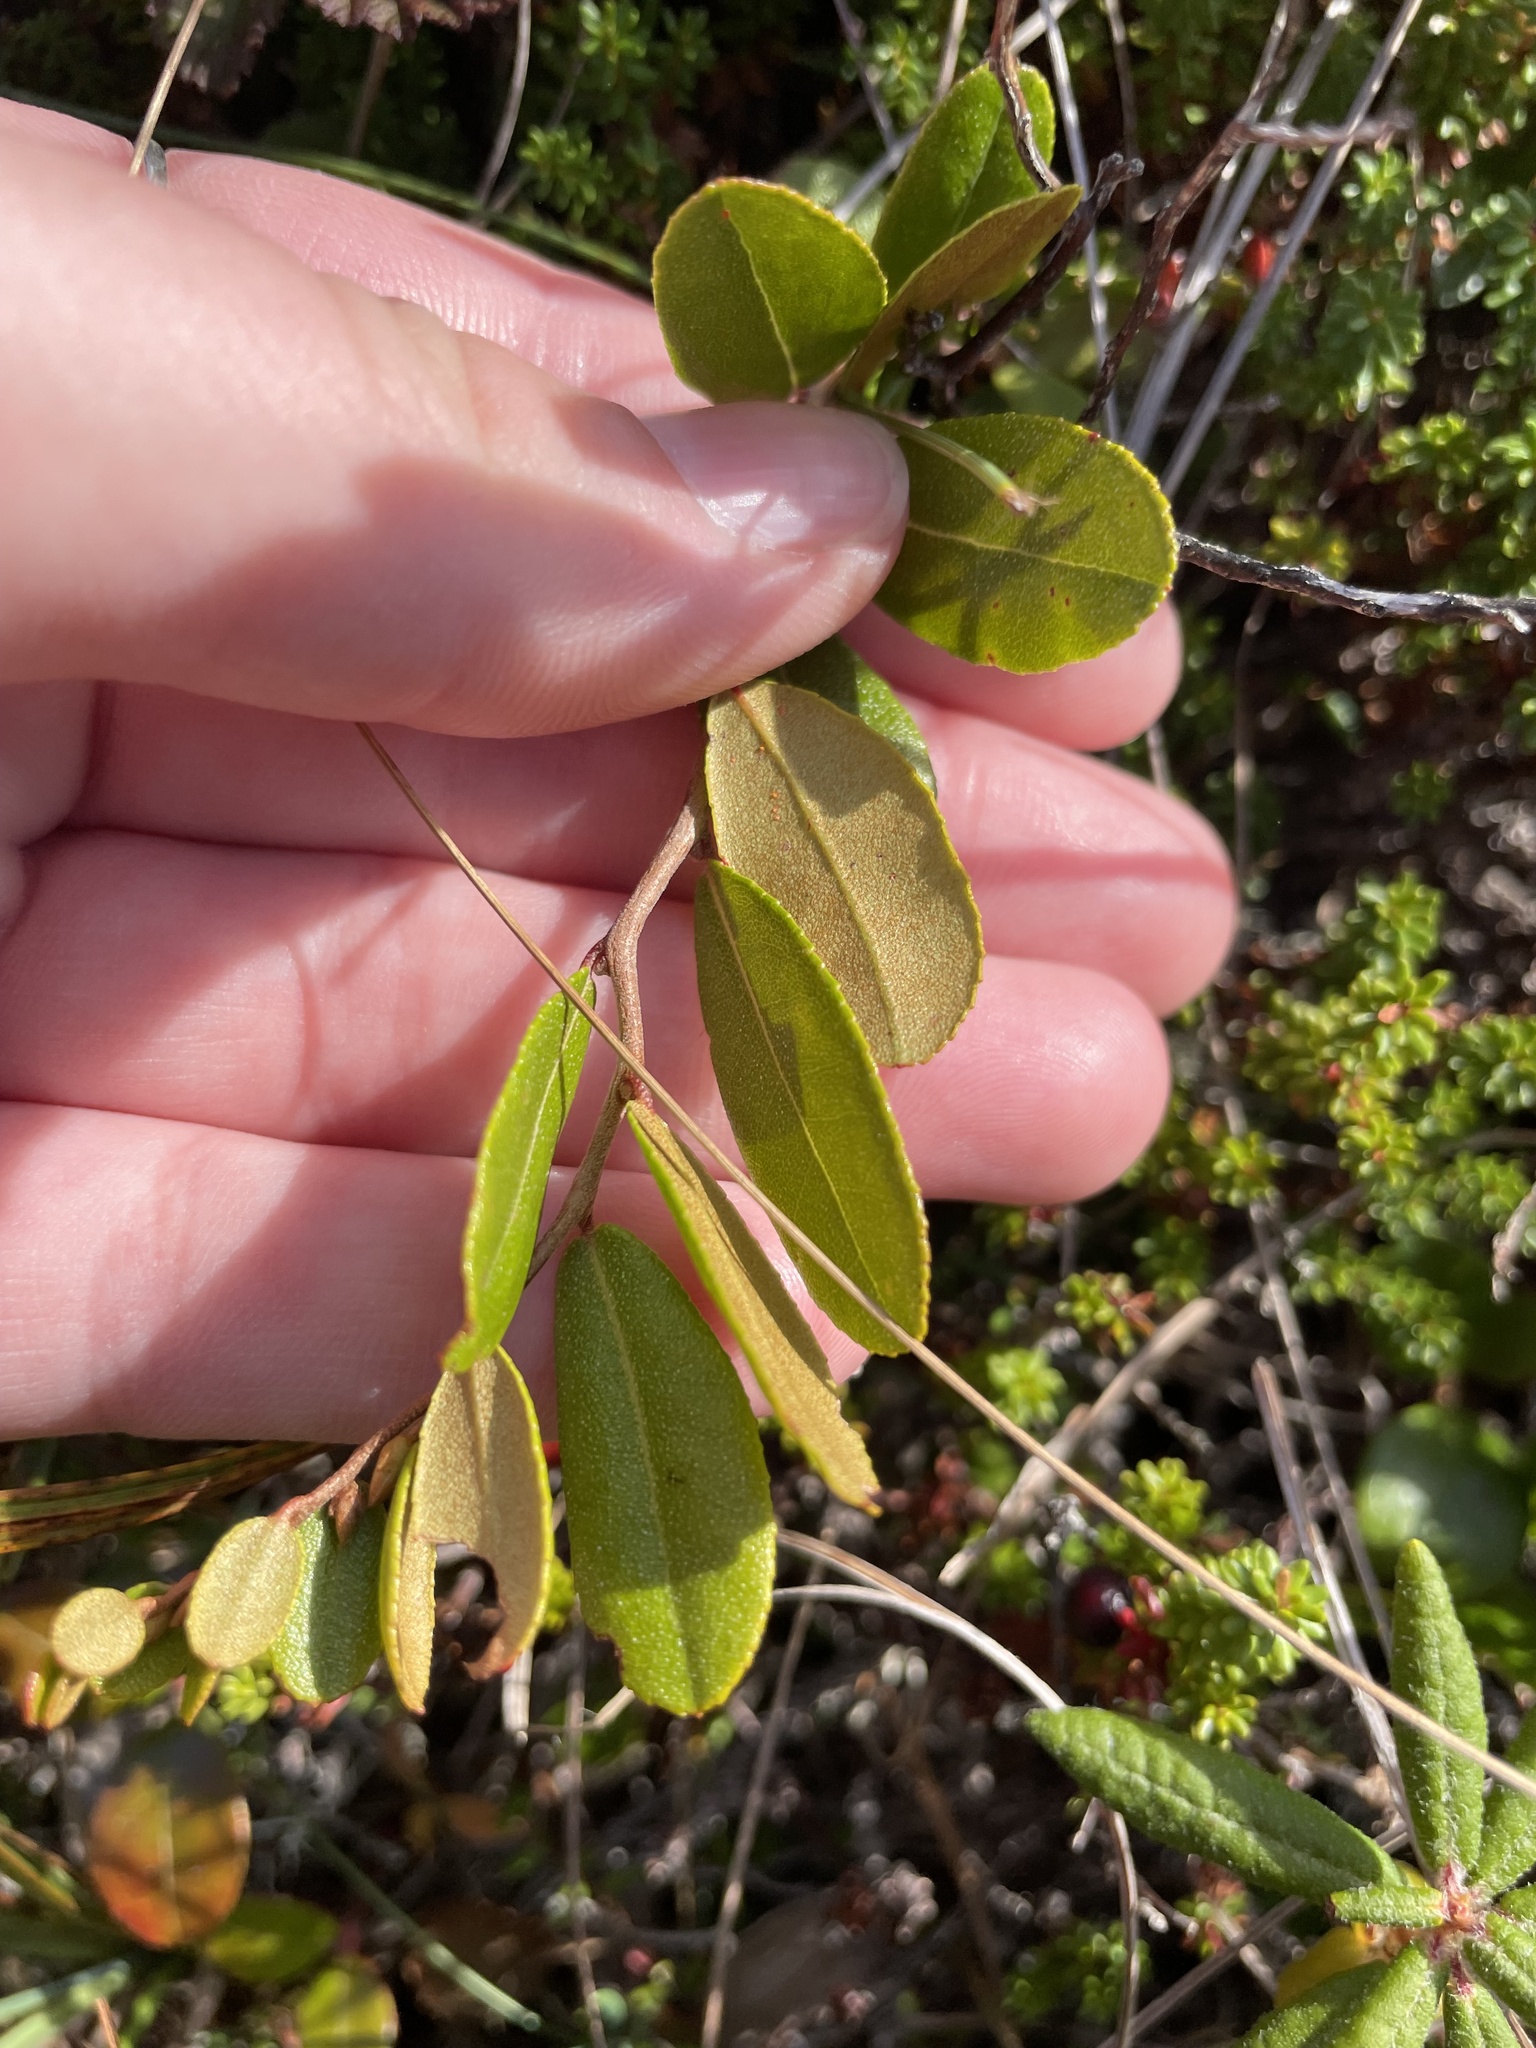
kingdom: Plantae
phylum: Tracheophyta
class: Magnoliopsida
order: Ericales
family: Ericaceae
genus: Chamaedaphne
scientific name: Chamaedaphne calyculata
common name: Leatherleaf
